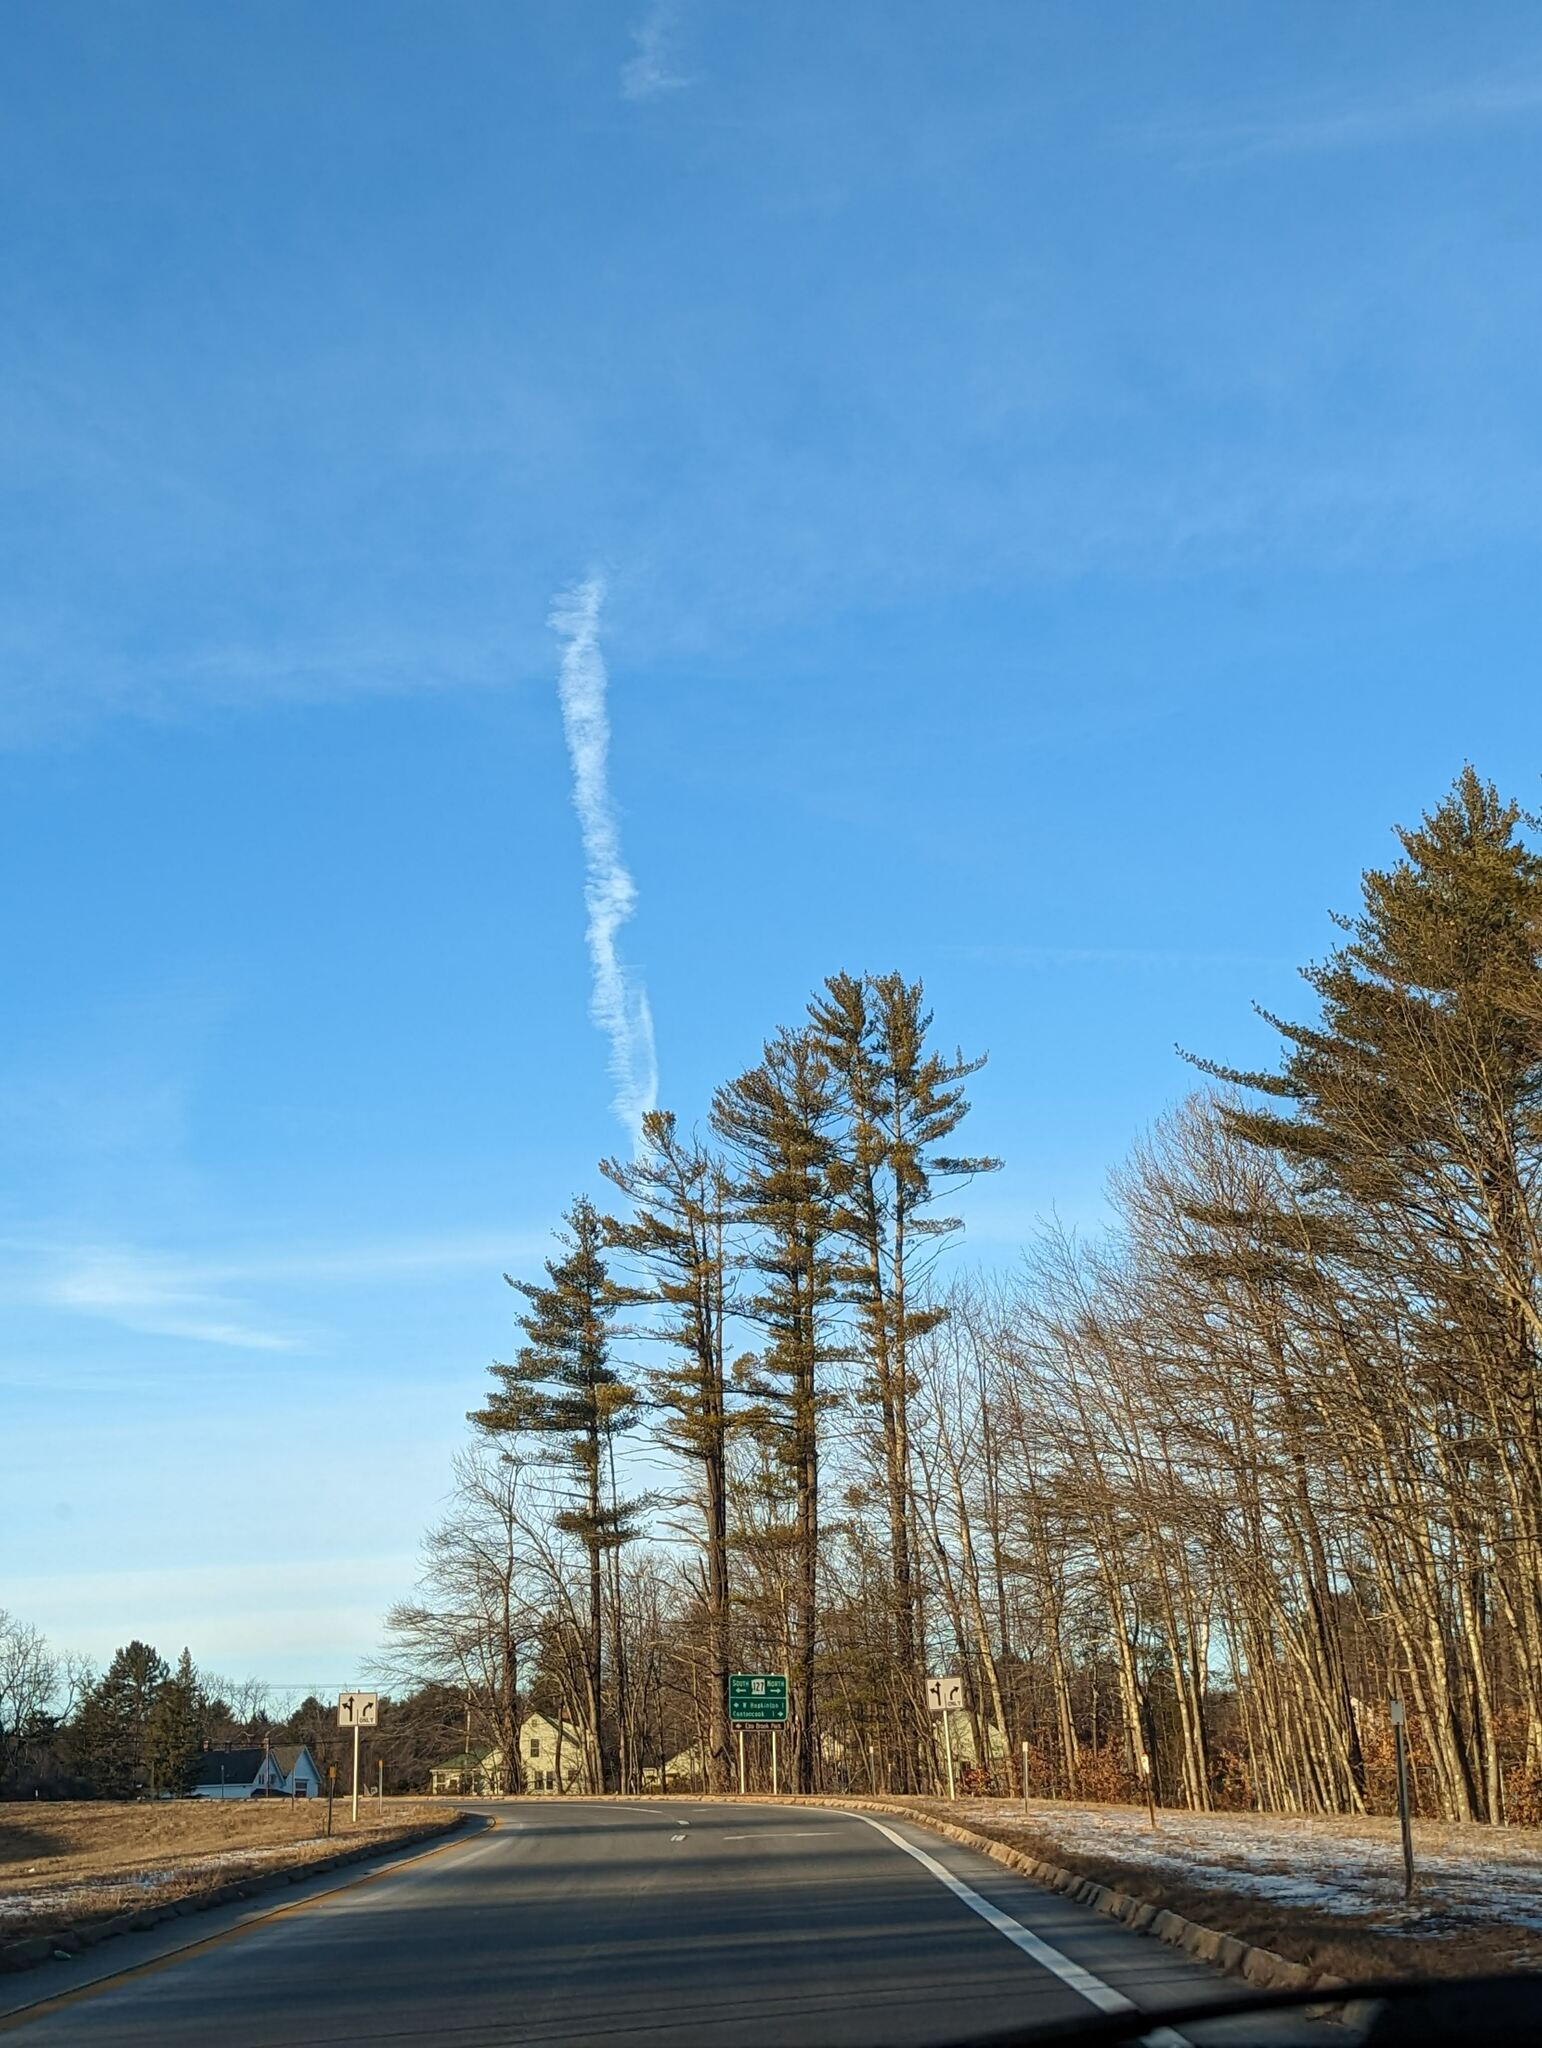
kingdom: Plantae
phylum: Tracheophyta
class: Pinopsida
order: Pinales
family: Pinaceae
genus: Pinus
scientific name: Pinus strobus
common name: Weymouth pine
